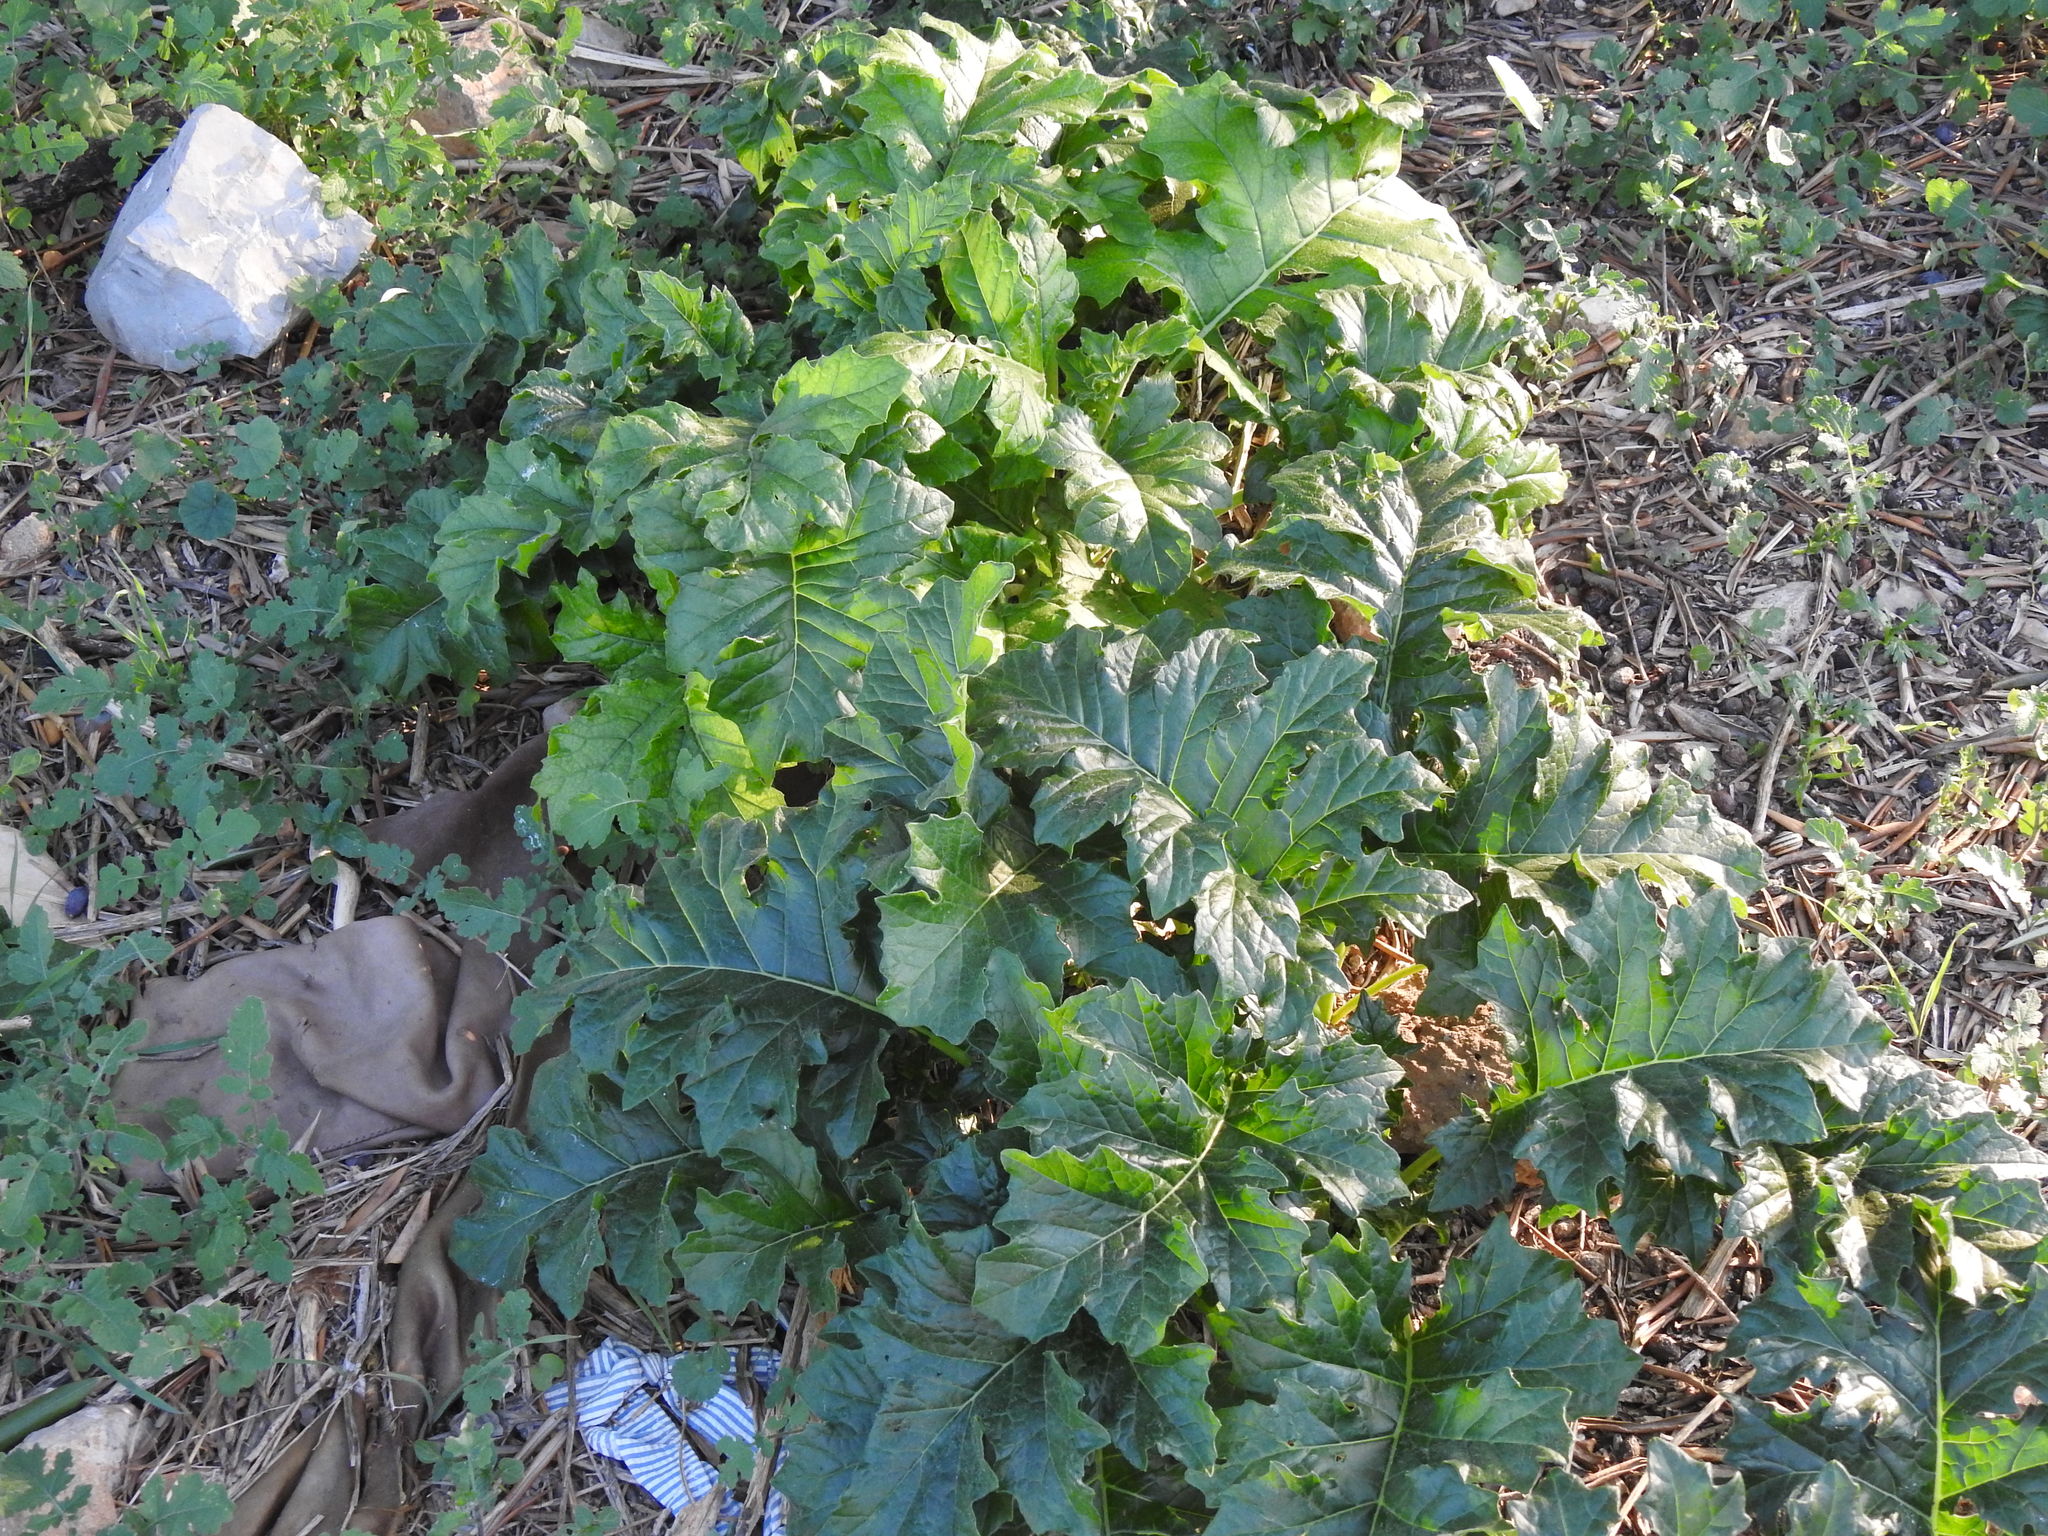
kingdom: Plantae
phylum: Tracheophyta
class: Magnoliopsida
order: Lamiales
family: Acanthaceae
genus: Acanthus
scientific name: Acanthus mollis
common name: Bear's-breech
